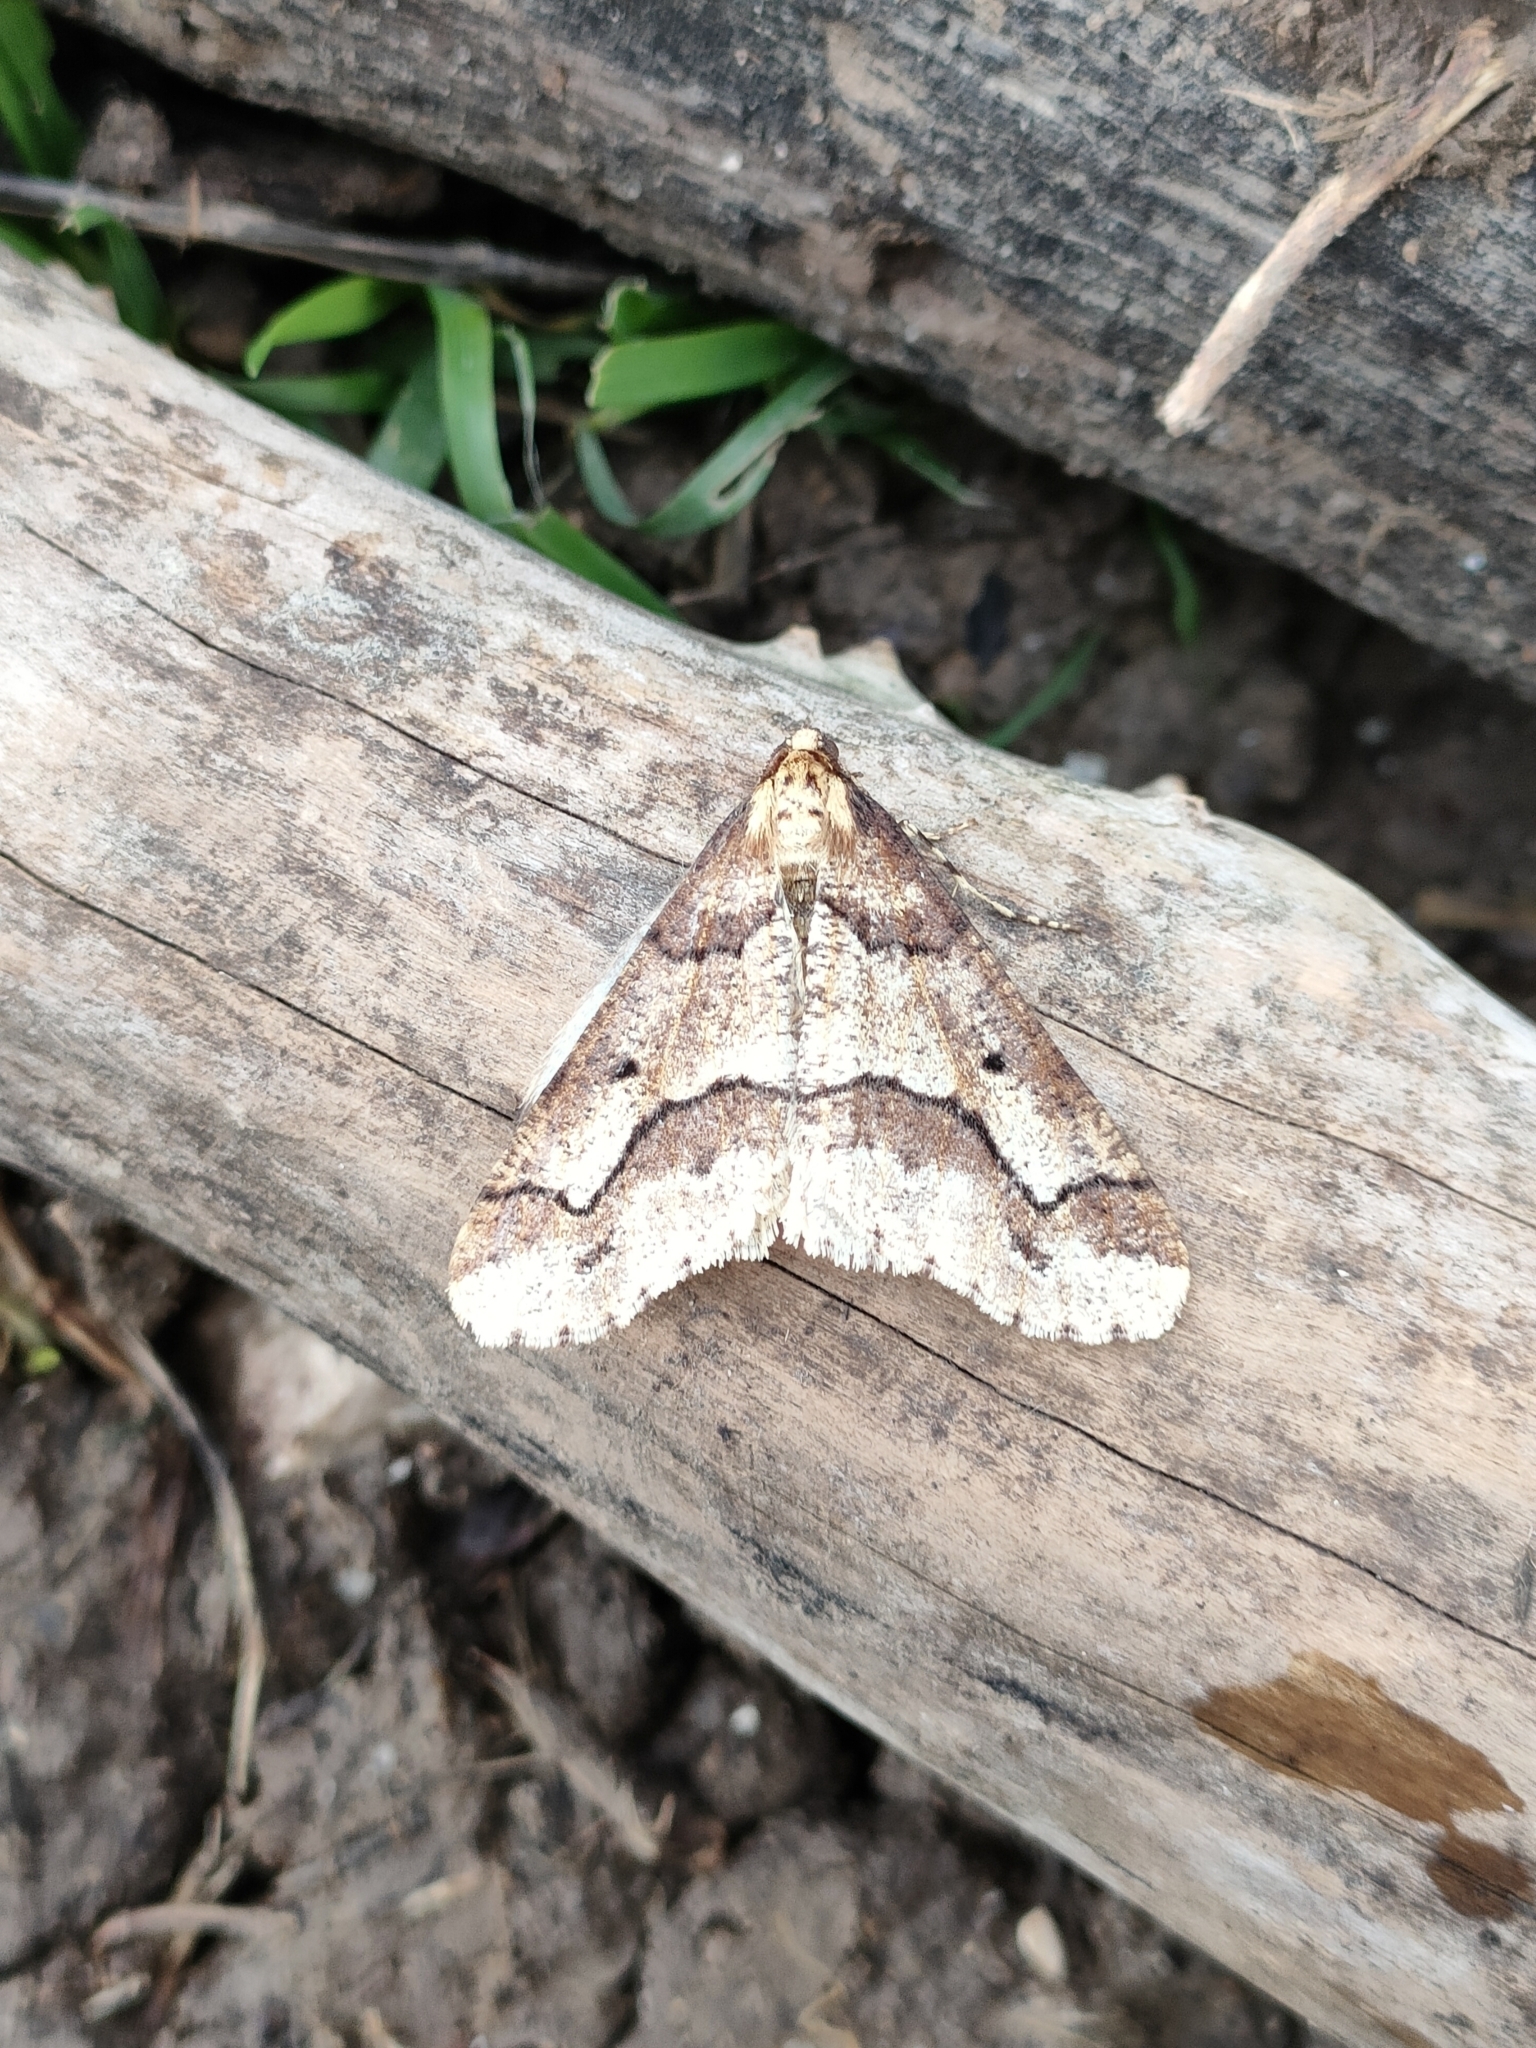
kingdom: Animalia
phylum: Arthropoda
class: Insecta
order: Lepidoptera
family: Geometridae
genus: Erannis
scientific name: Erannis defoliaria
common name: Mottled umber
